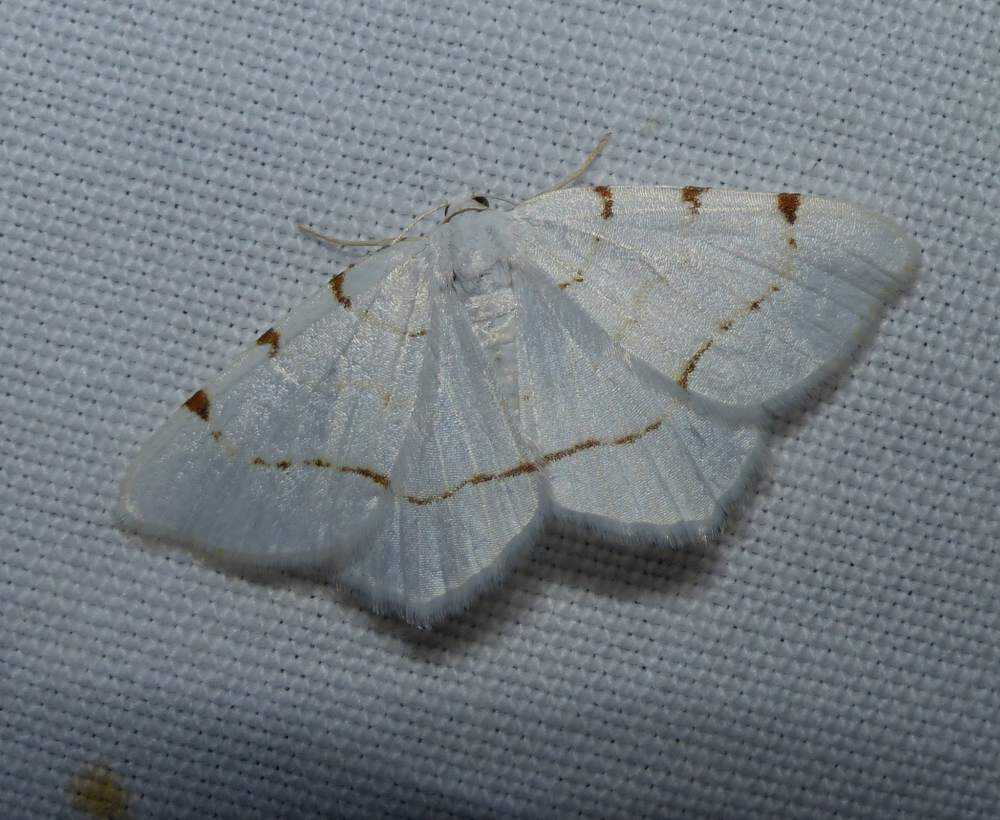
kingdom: Animalia
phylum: Arthropoda
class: Insecta
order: Lepidoptera
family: Geometridae
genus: Macaria
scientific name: Macaria pustularia
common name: Lesser maple spanworm moth
